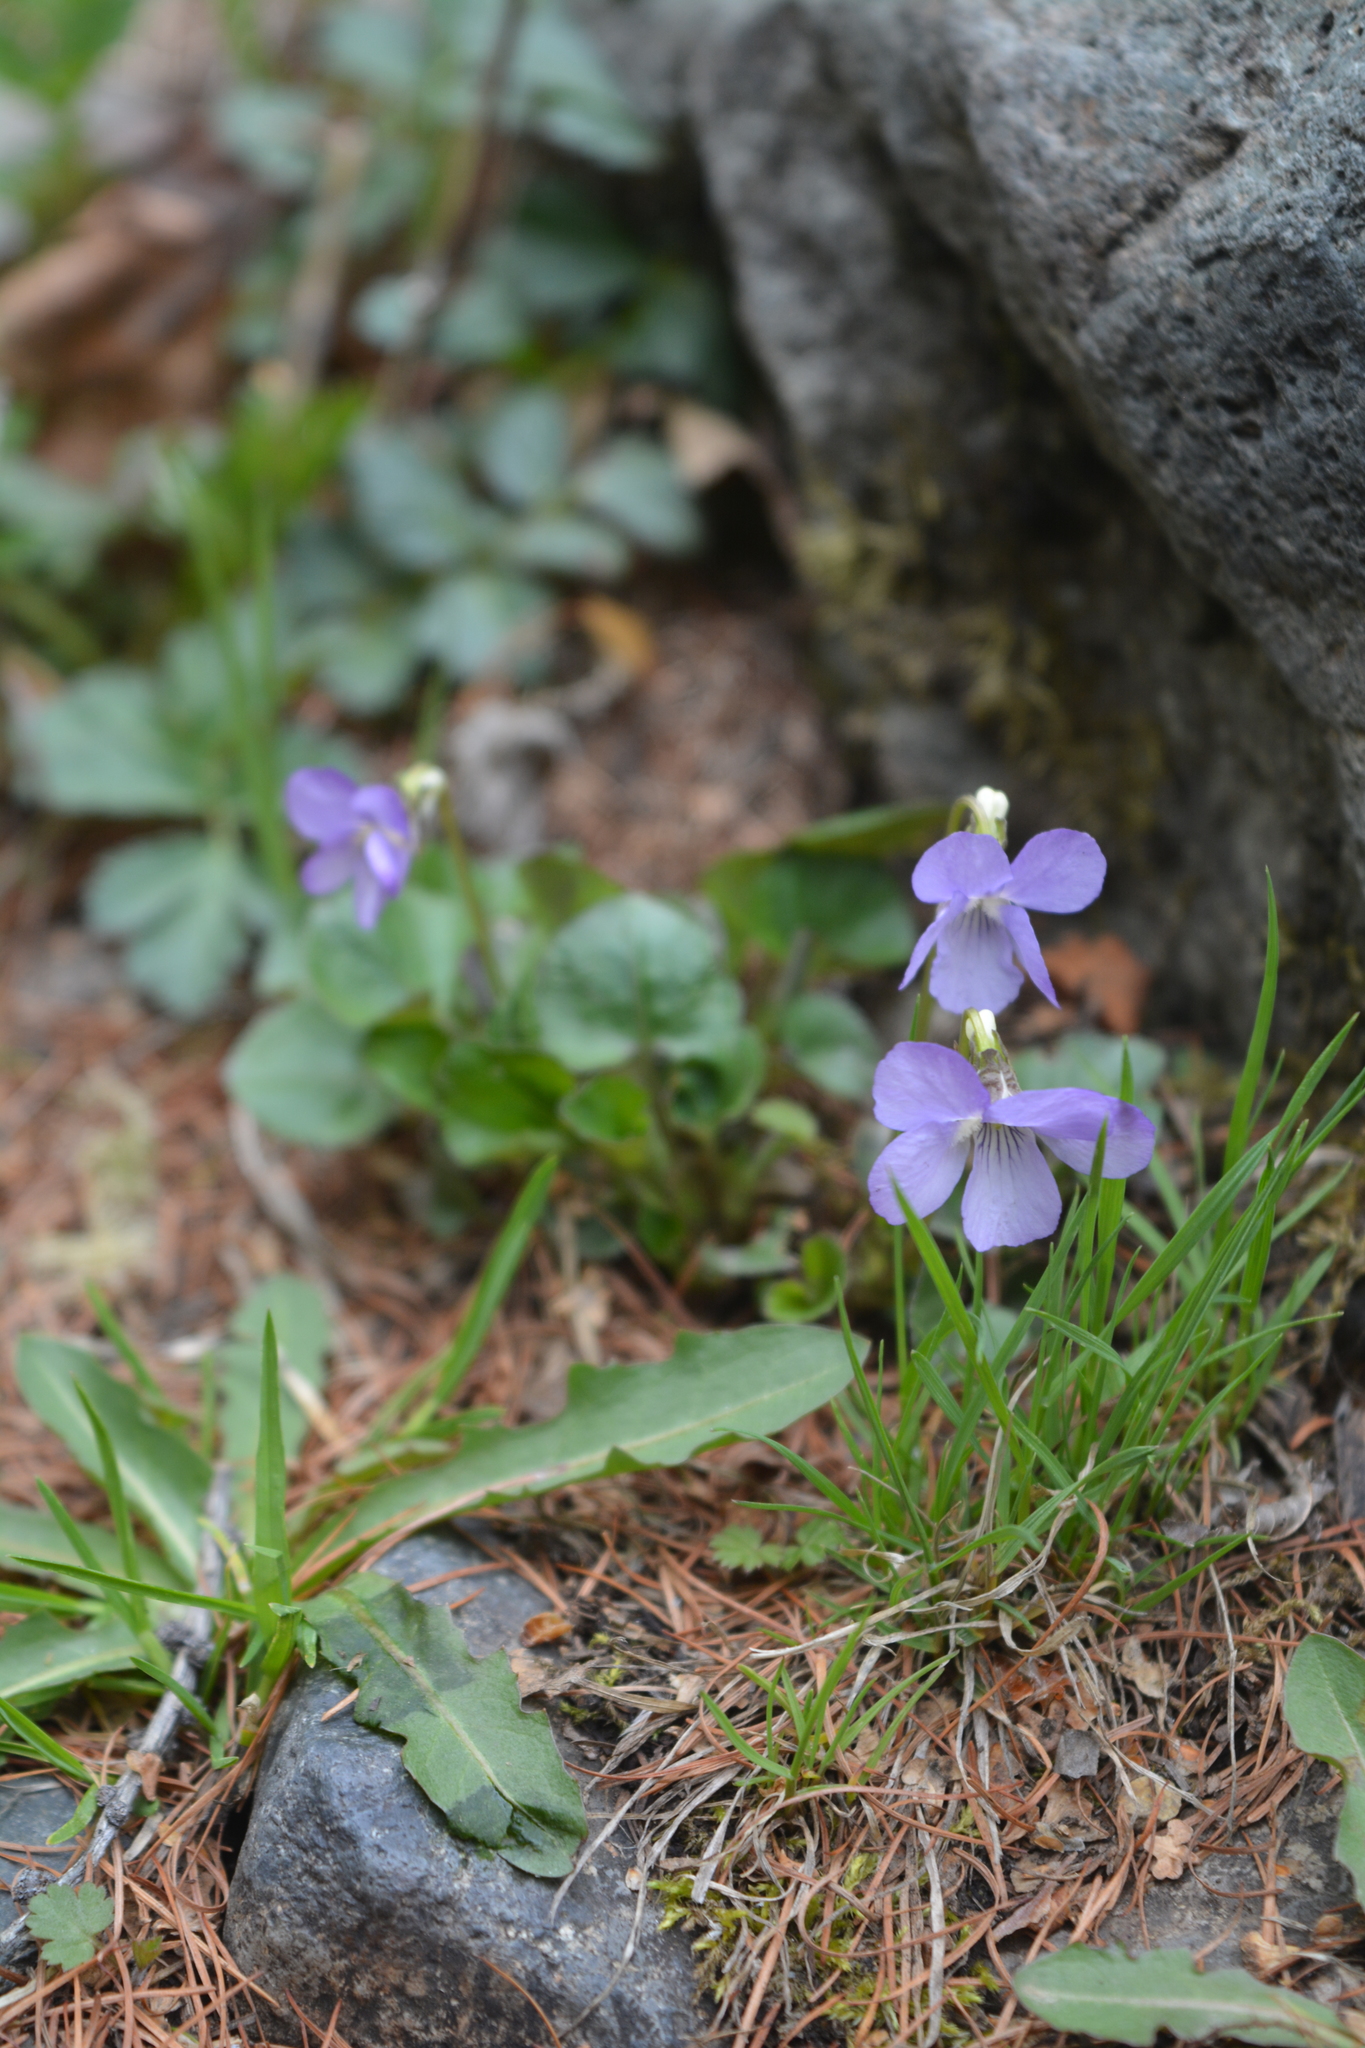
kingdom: Plantae
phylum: Tracheophyta
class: Magnoliopsida
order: Malpighiales
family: Violaceae
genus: Viola
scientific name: Viola rupestris
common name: Teesdale violet
